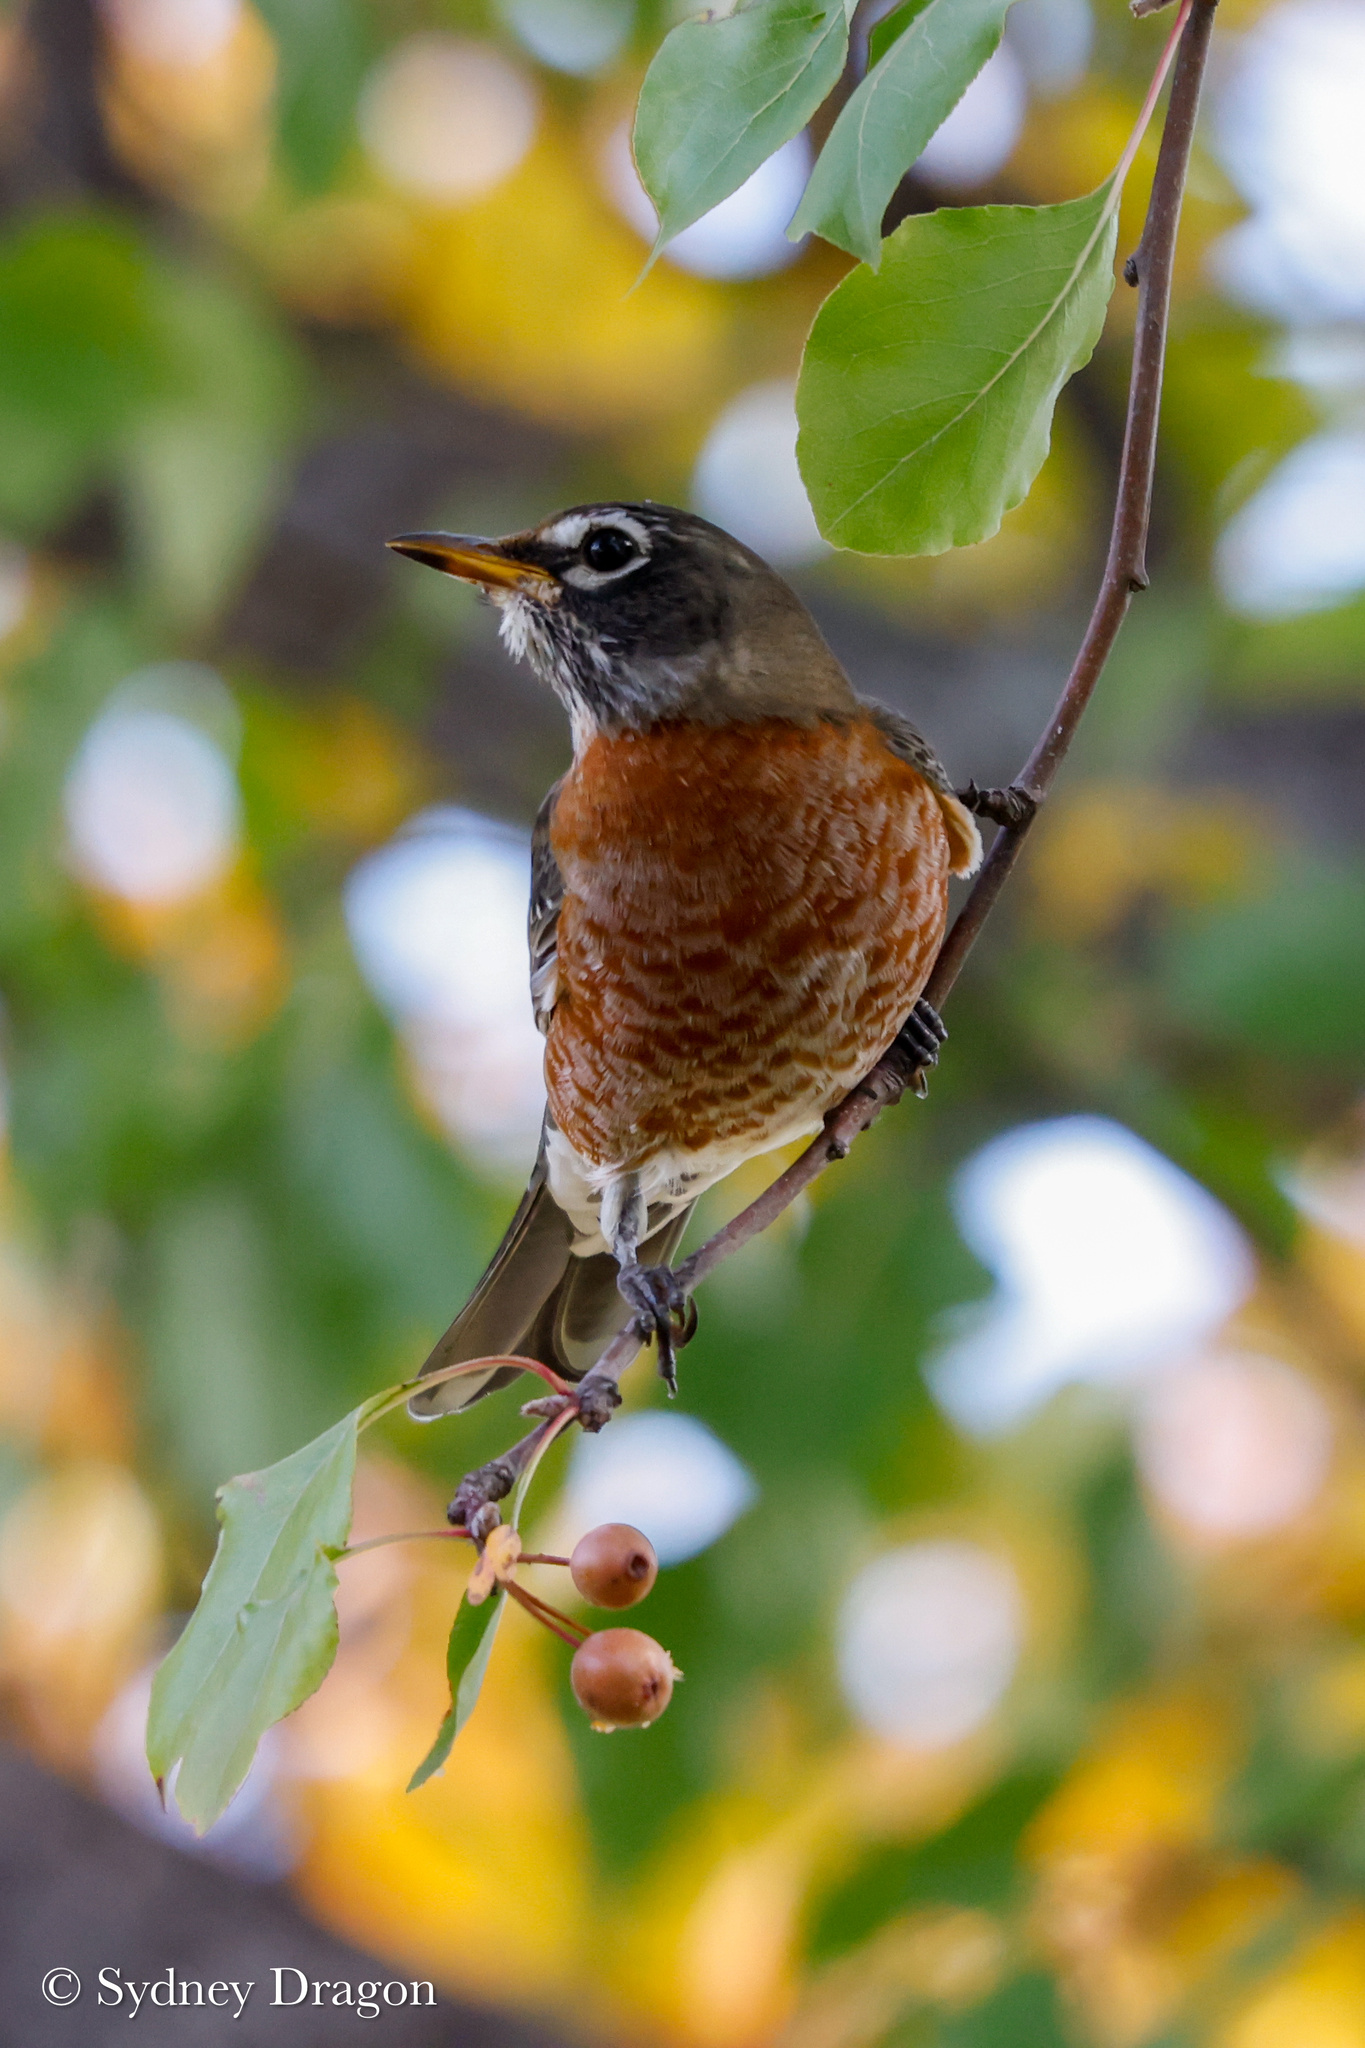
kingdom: Animalia
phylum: Chordata
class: Aves
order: Passeriformes
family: Turdidae
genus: Turdus
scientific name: Turdus migratorius
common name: American robin
